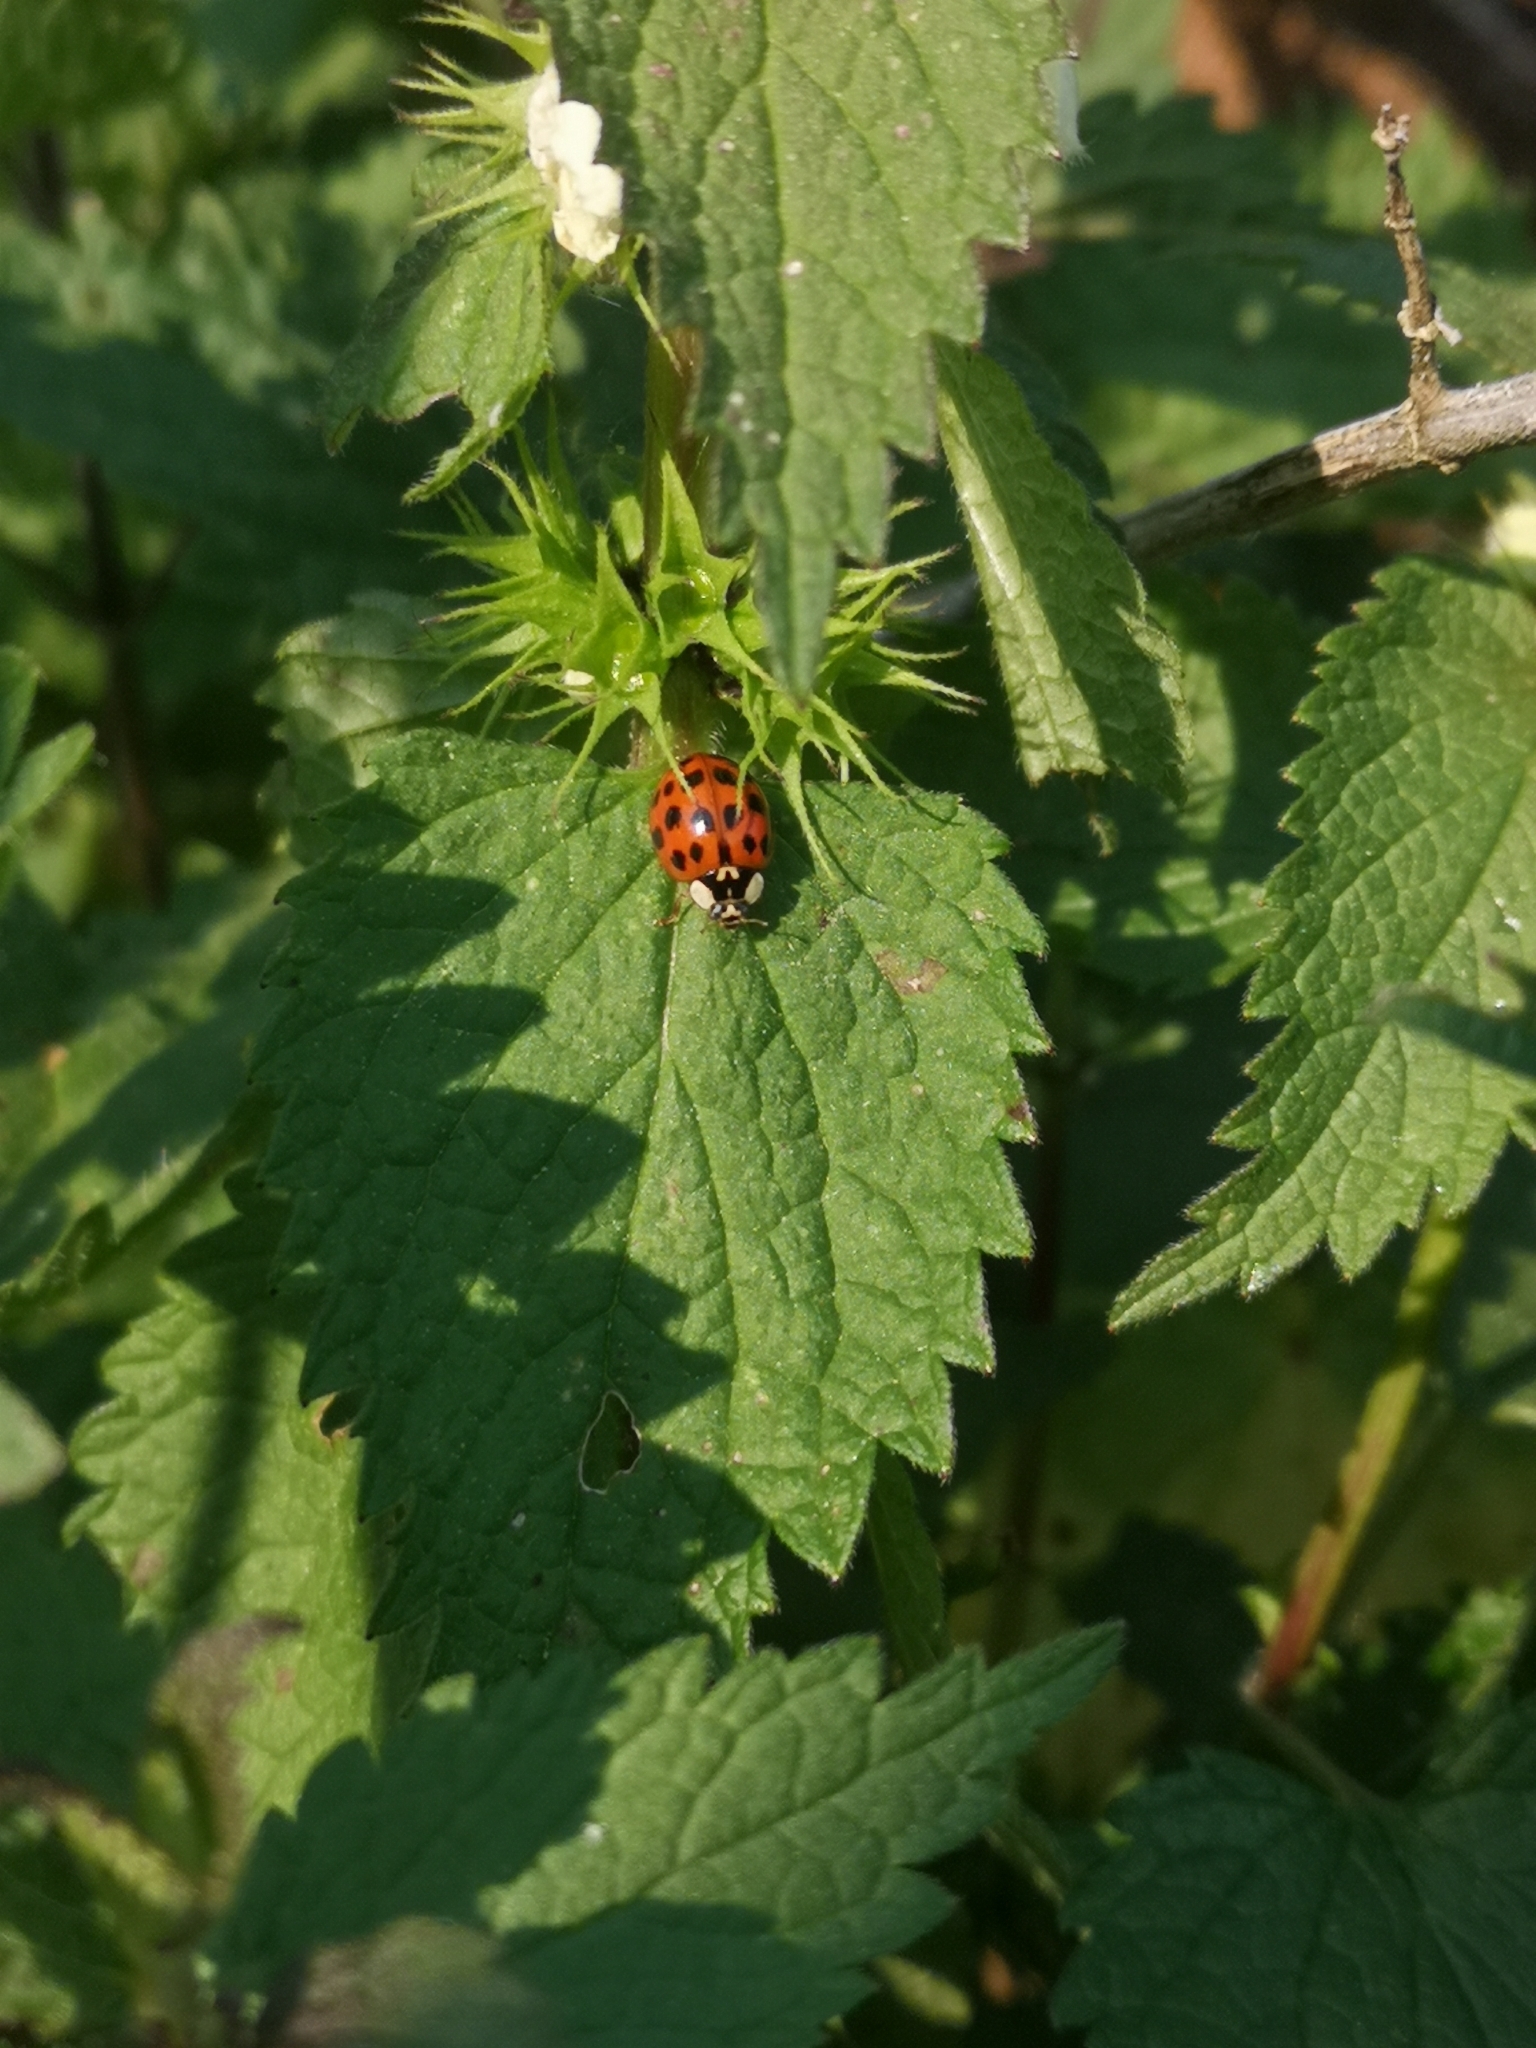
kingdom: Animalia
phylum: Arthropoda
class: Insecta
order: Coleoptera
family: Coccinellidae
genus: Harmonia
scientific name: Harmonia axyridis
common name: Harlequin ladybird
